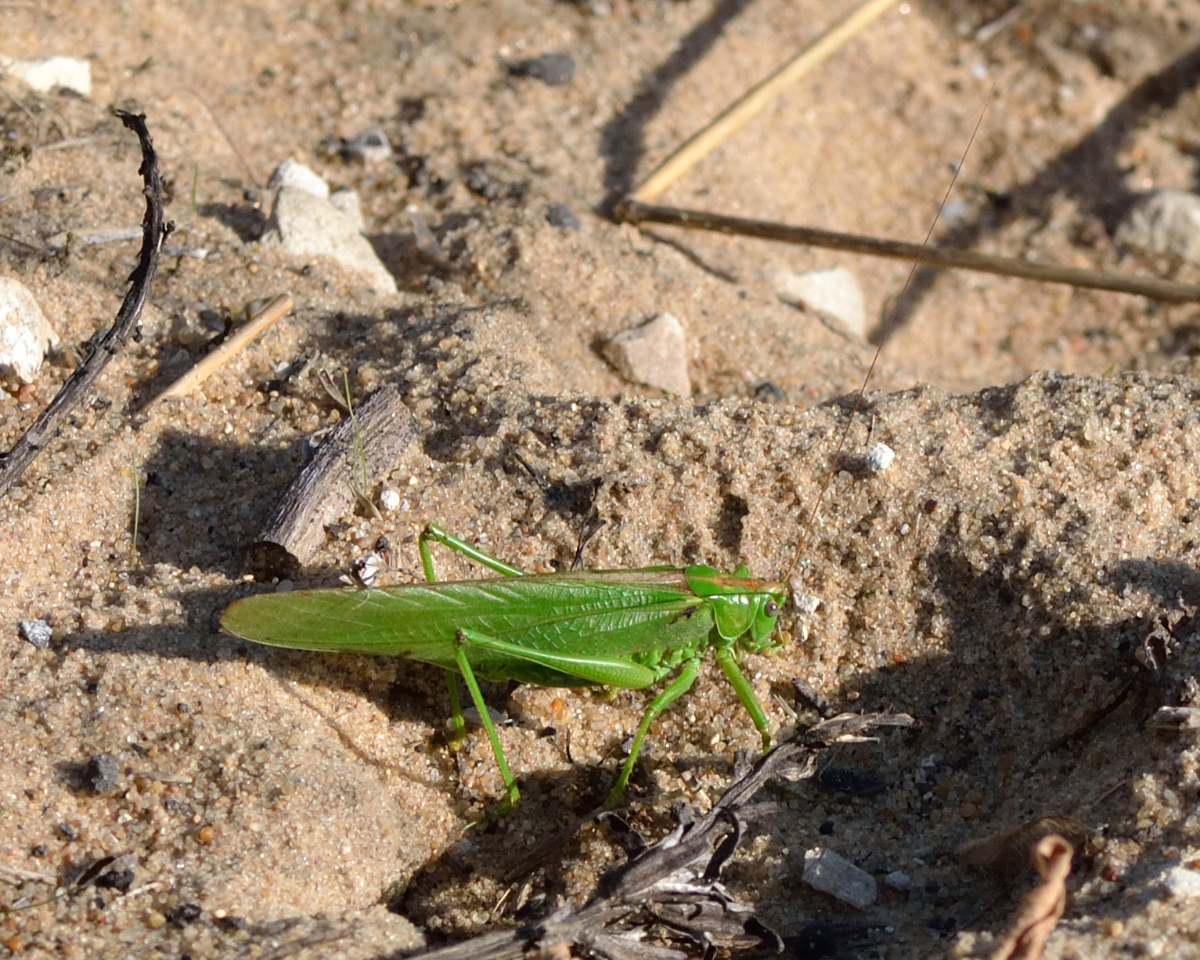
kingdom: Animalia
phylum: Arthropoda
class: Insecta
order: Orthoptera
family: Tettigoniidae
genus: Tettigonia
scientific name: Tettigonia viridissima
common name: Great green bush-cricket
